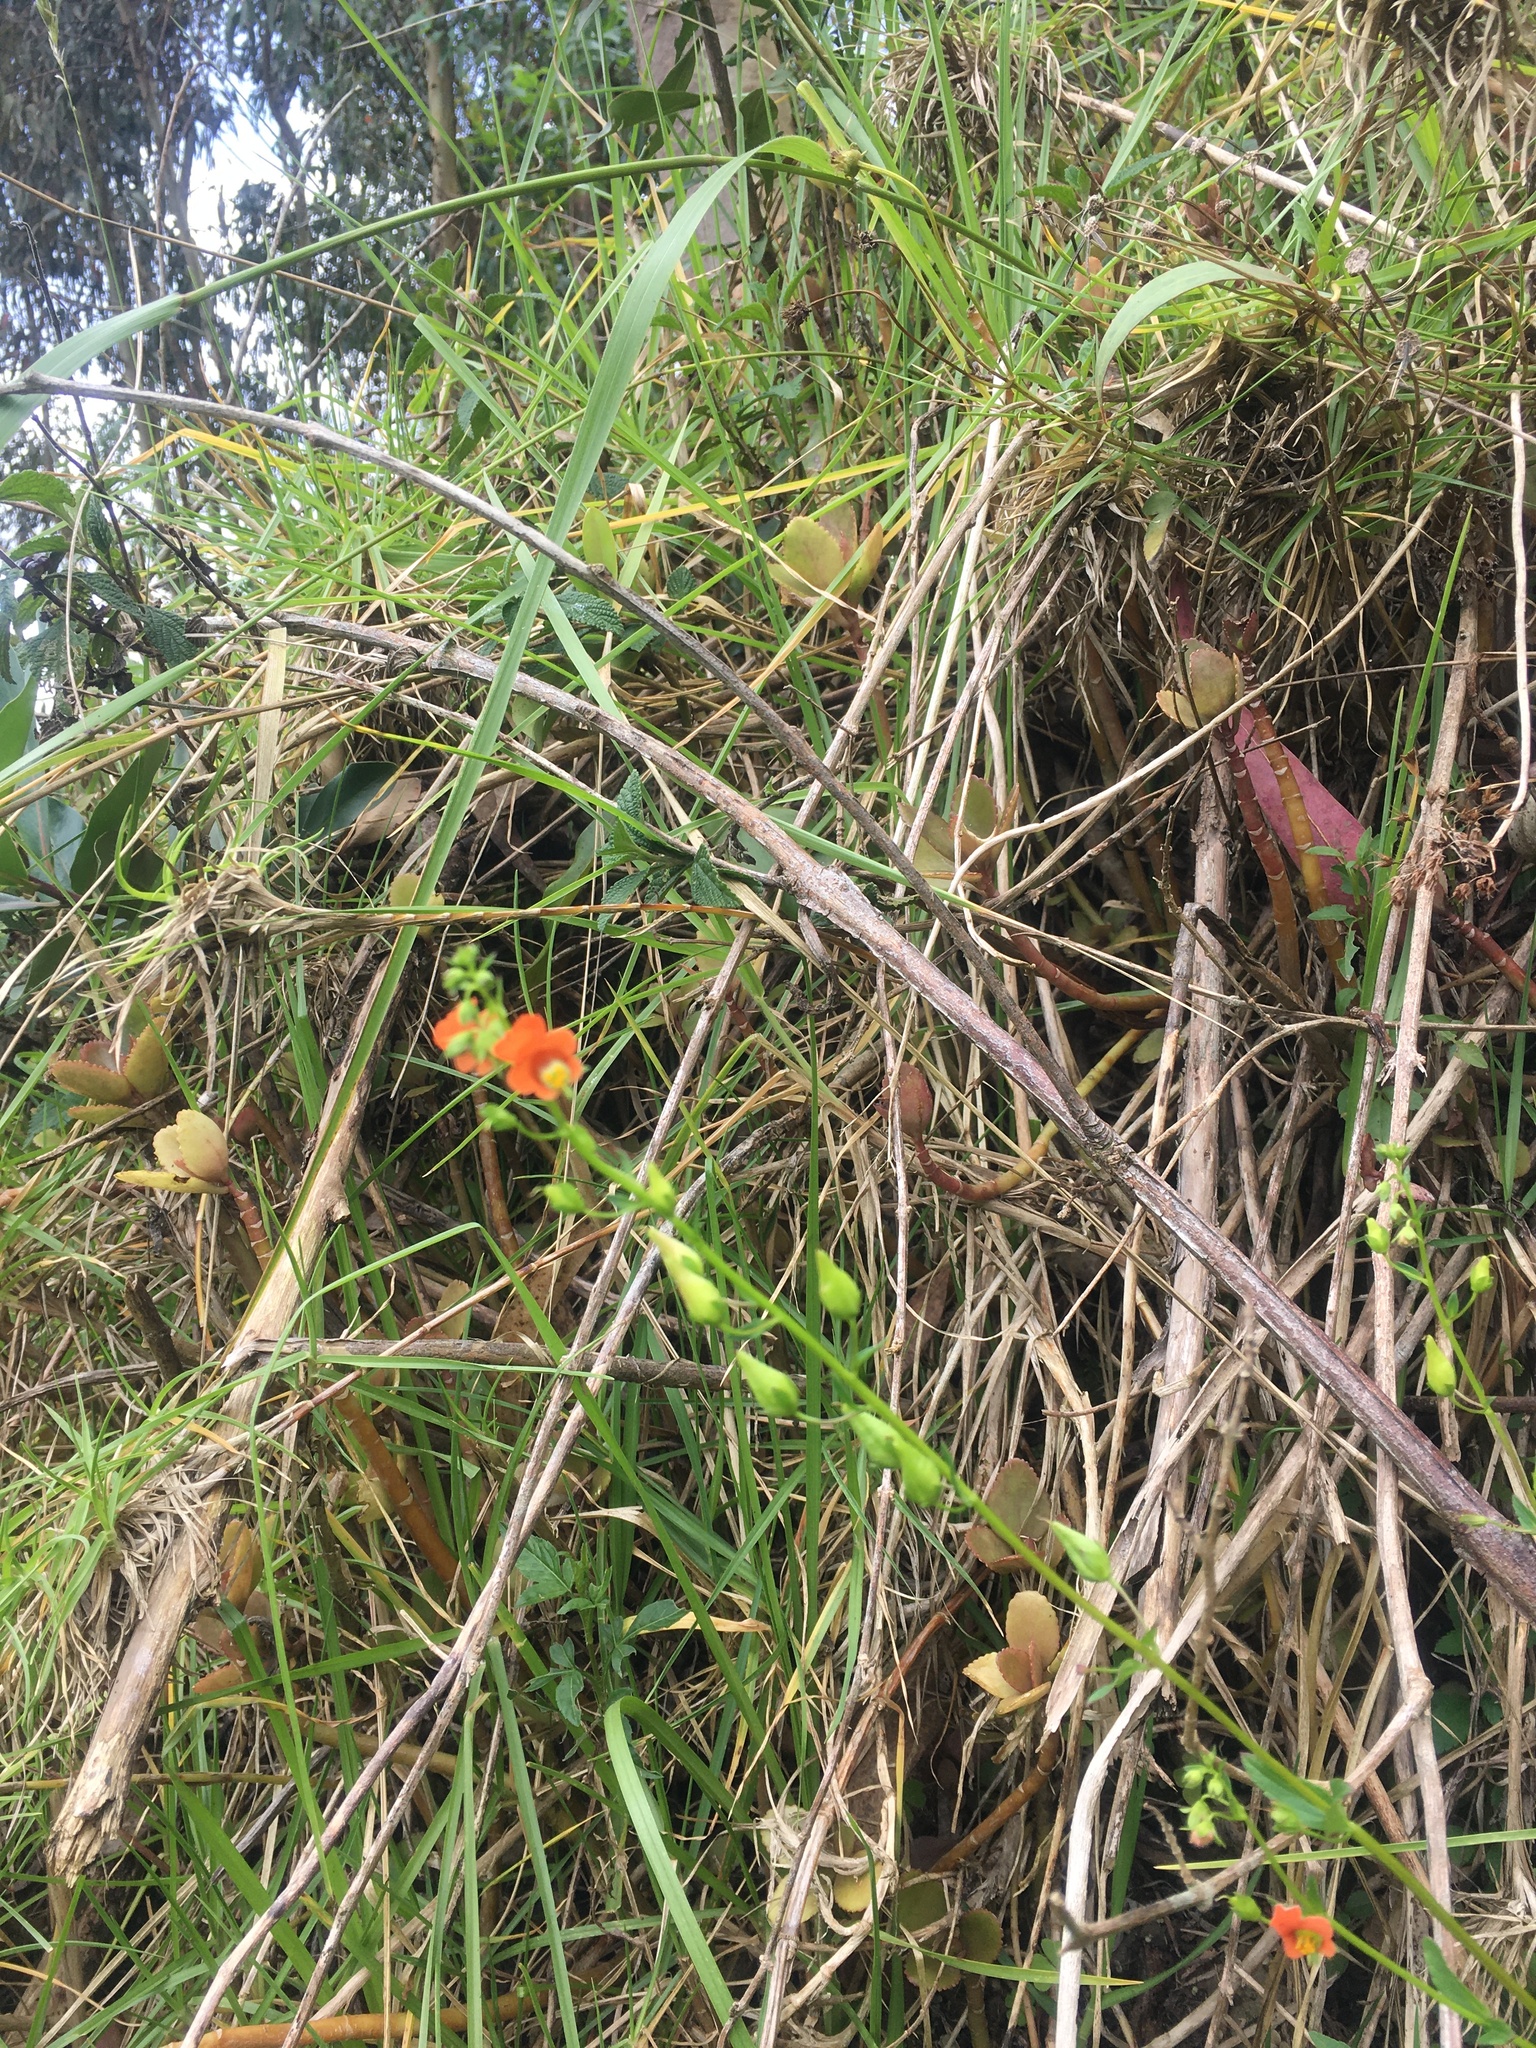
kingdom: Plantae
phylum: Tracheophyta
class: Magnoliopsida
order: Lamiales
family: Scrophulariaceae
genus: Alonsoa
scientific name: Alonsoa meridionalis
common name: Maskflower
